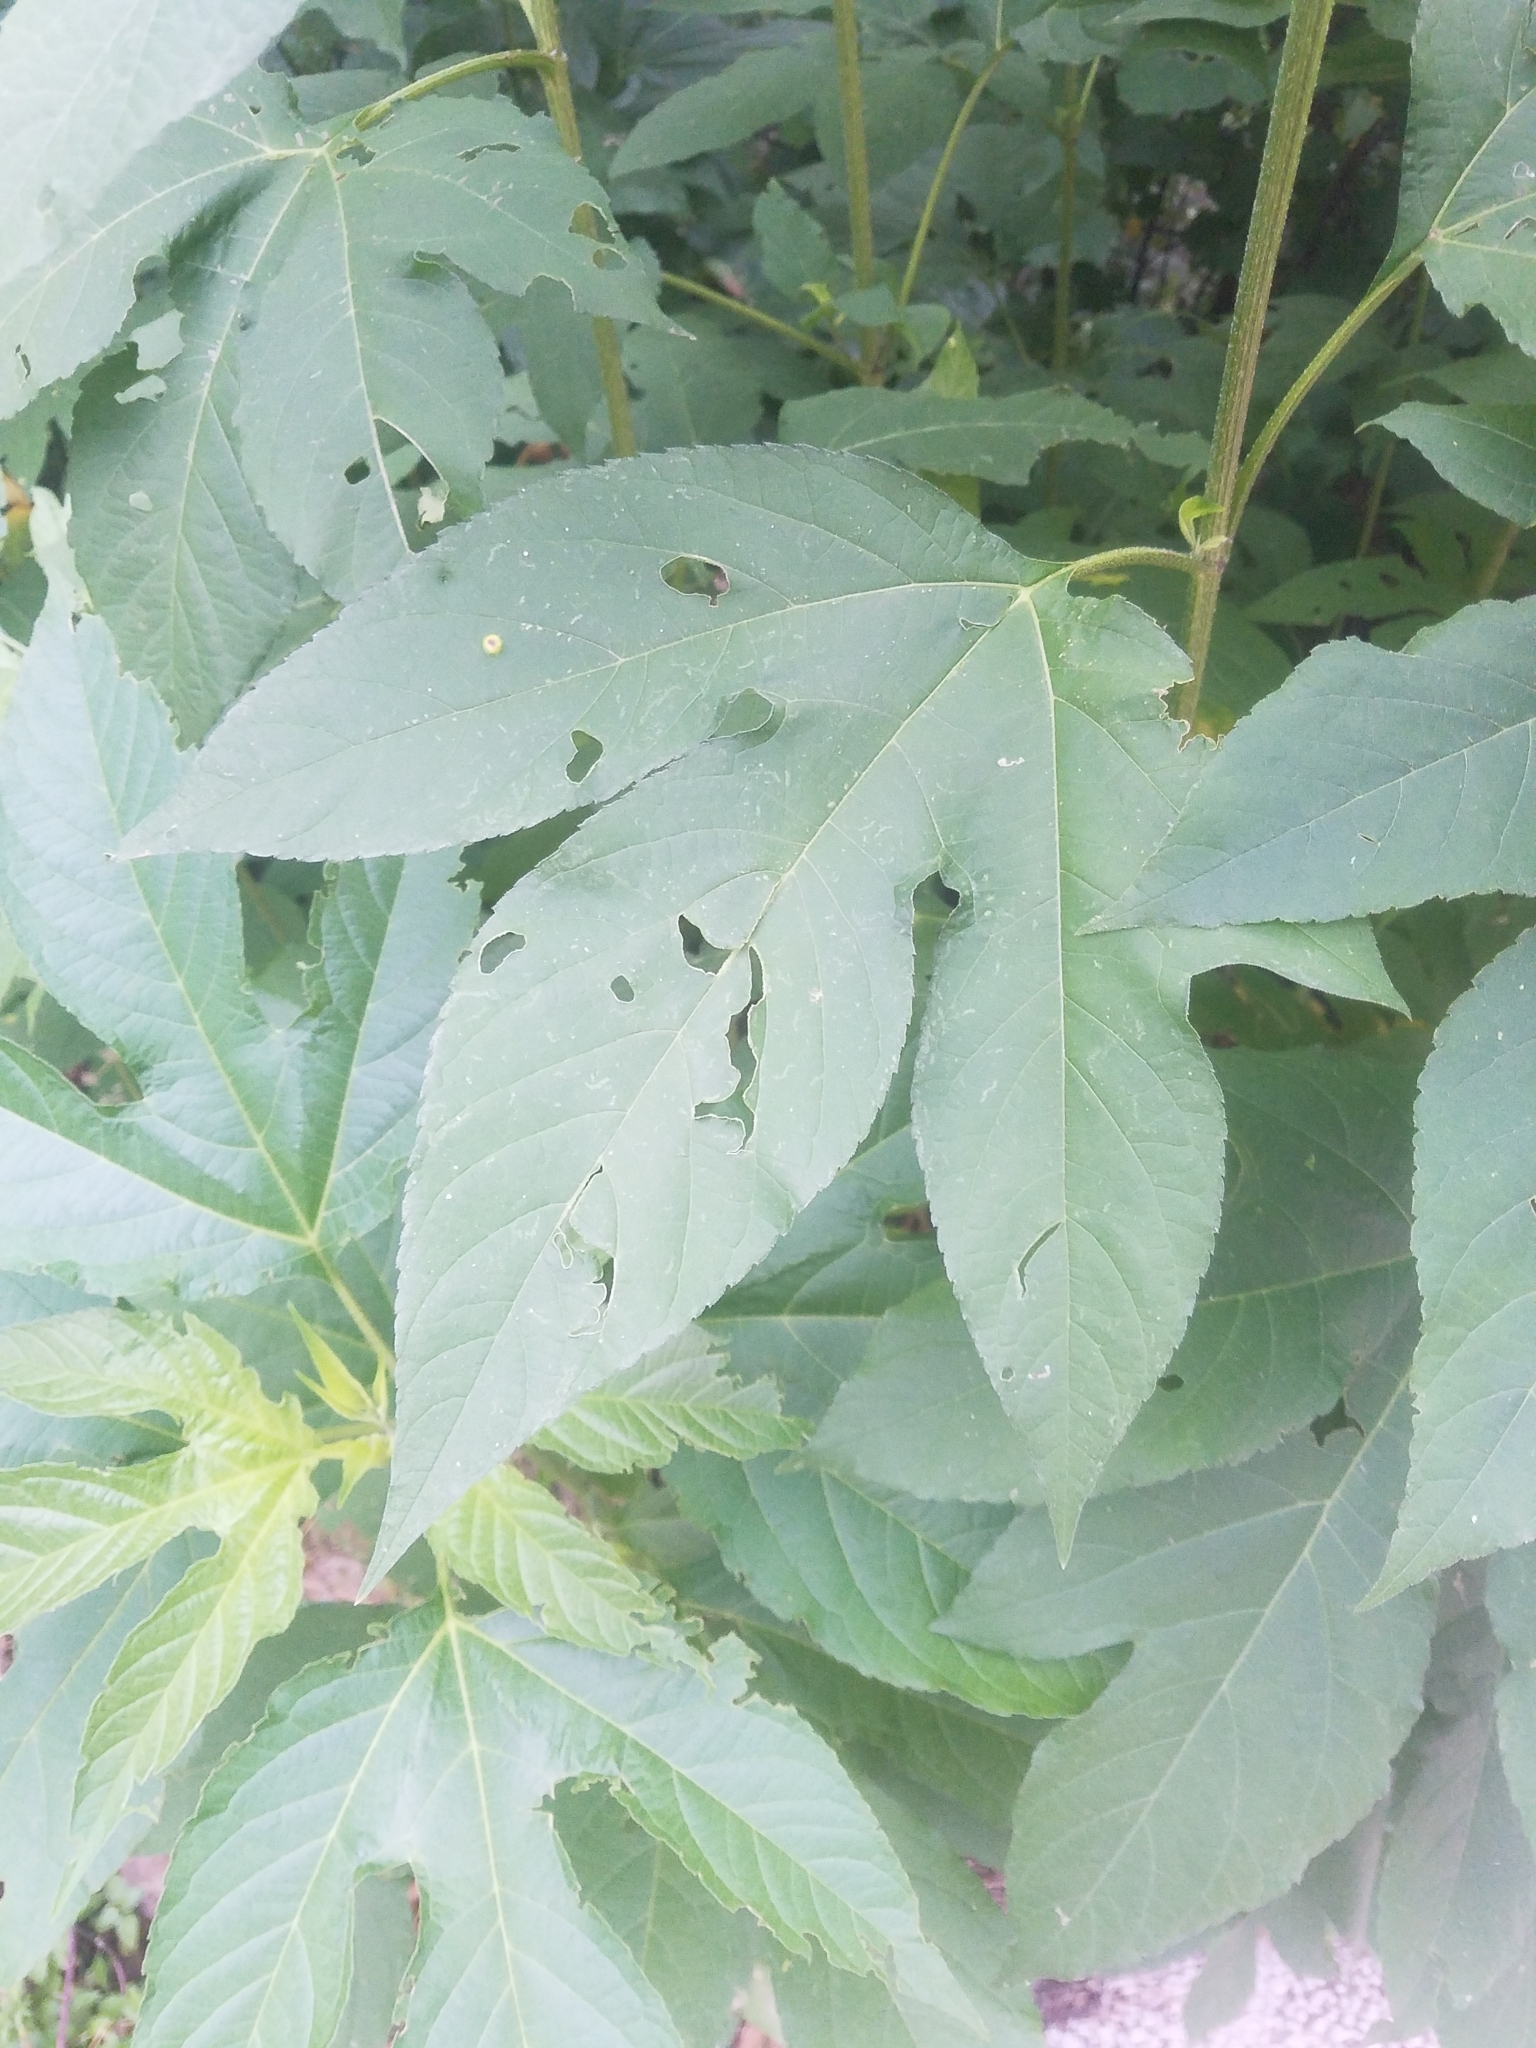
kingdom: Plantae
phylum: Tracheophyta
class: Magnoliopsida
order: Asterales
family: Asteraceae
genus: Ambrosia
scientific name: Ambrosia trifida
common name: Giant ragweed
